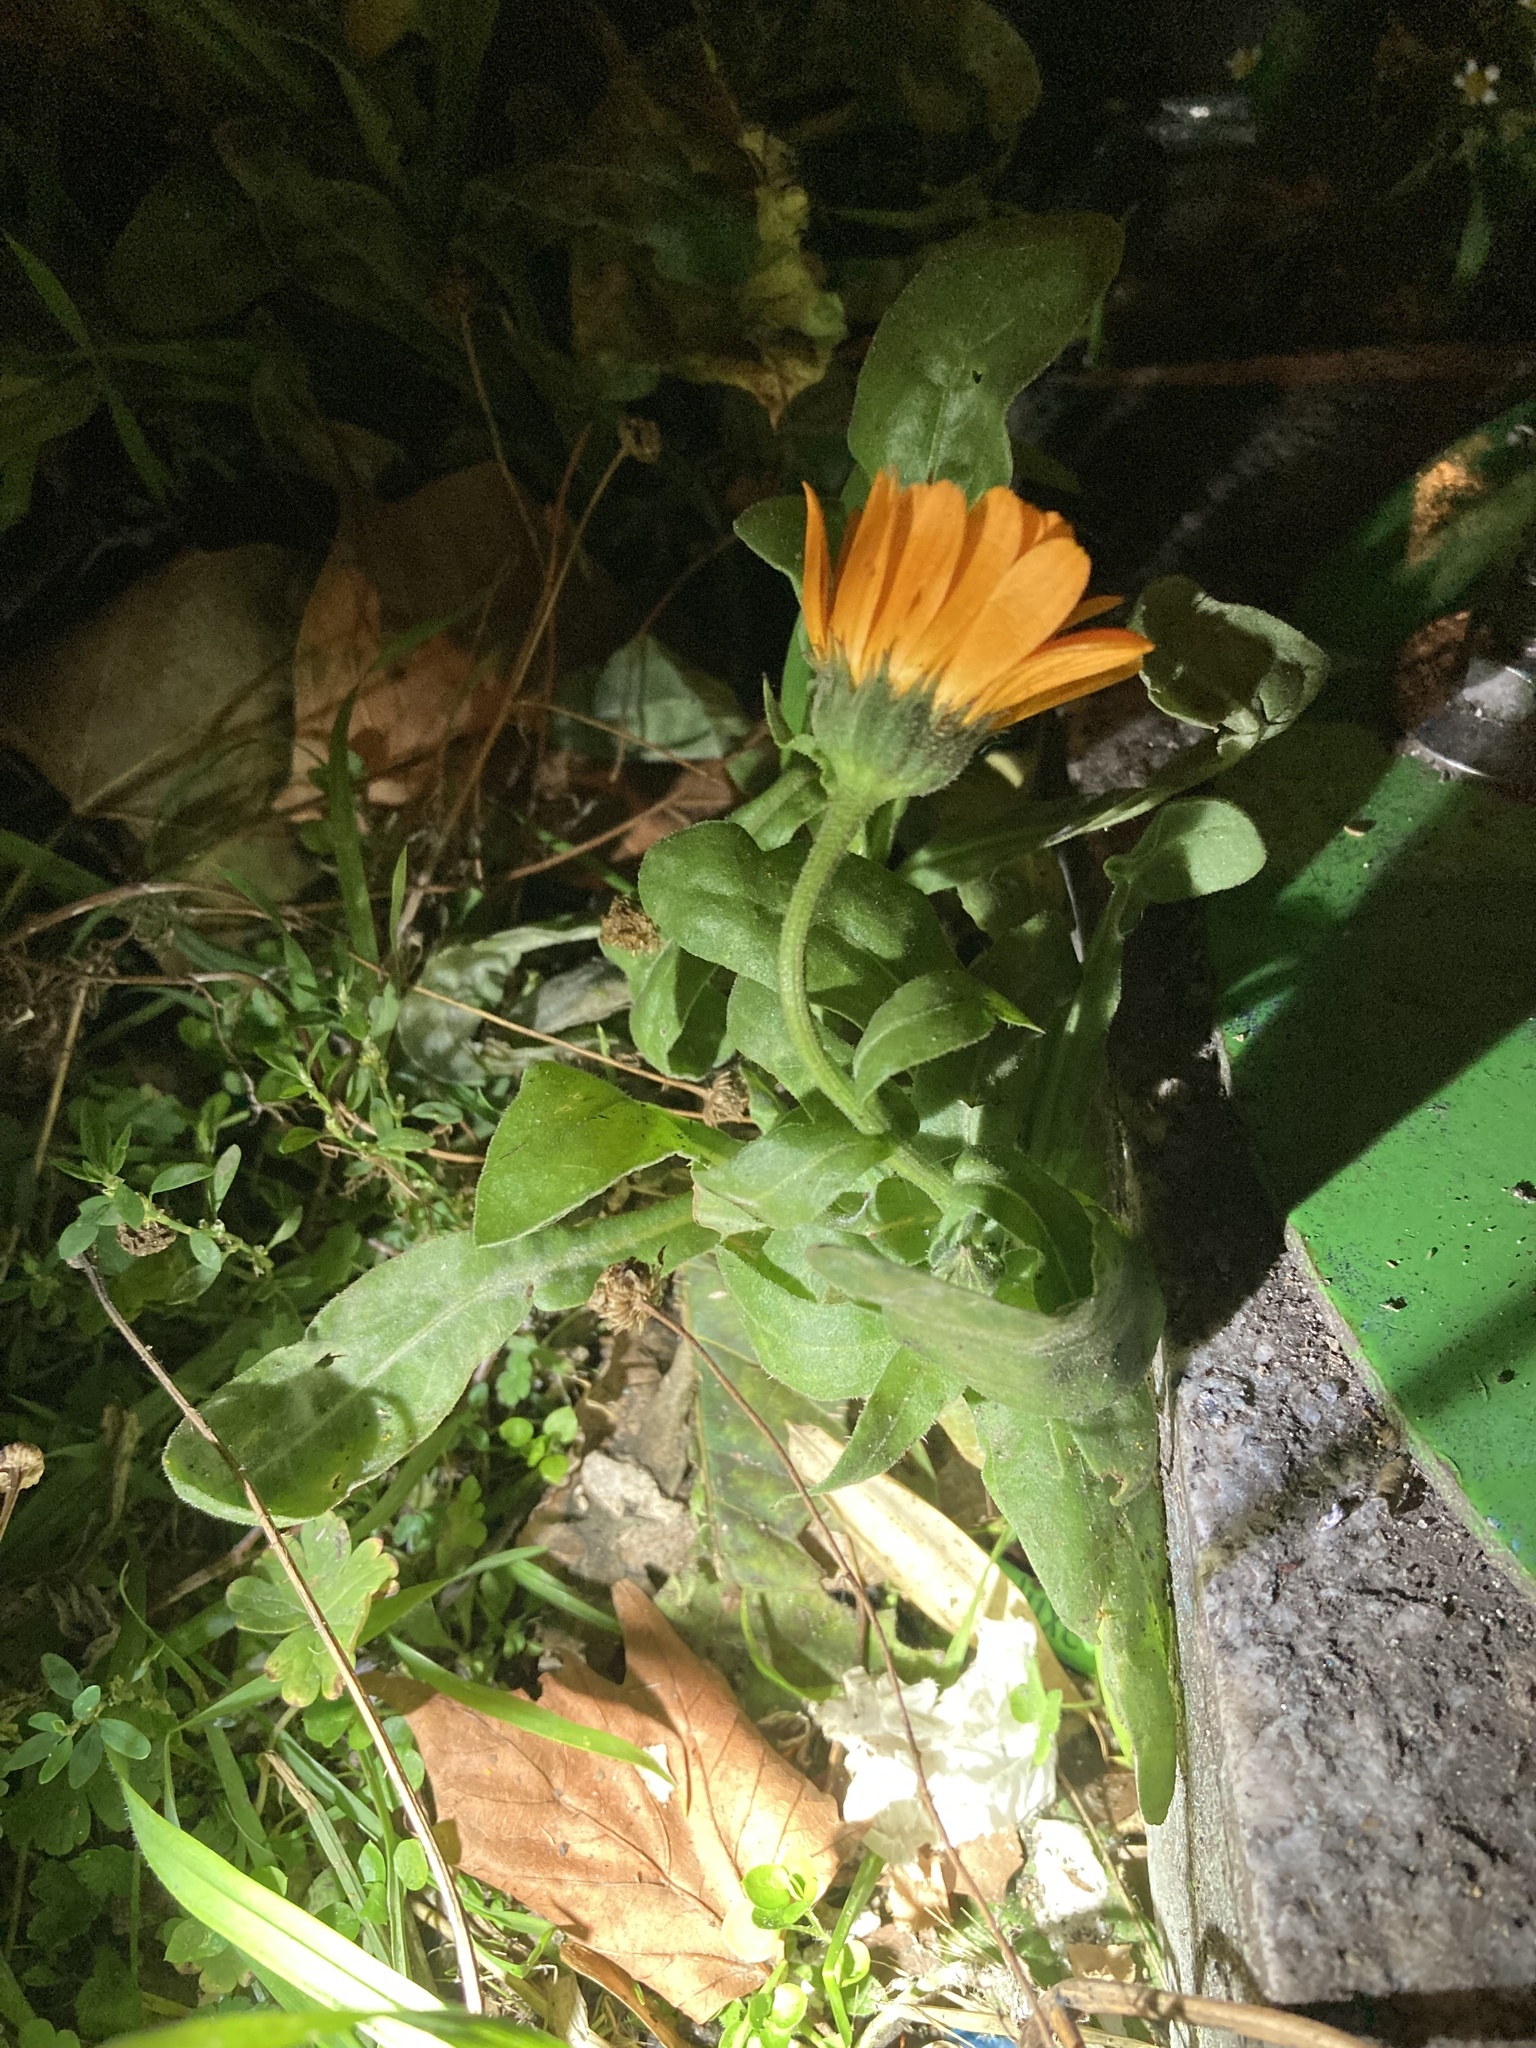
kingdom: Plantae
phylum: Tracheophyta
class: Magnoliopsida
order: Asterales
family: Asteraceae
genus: Calendula
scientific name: Calendula officinalis
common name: Pot marigold
